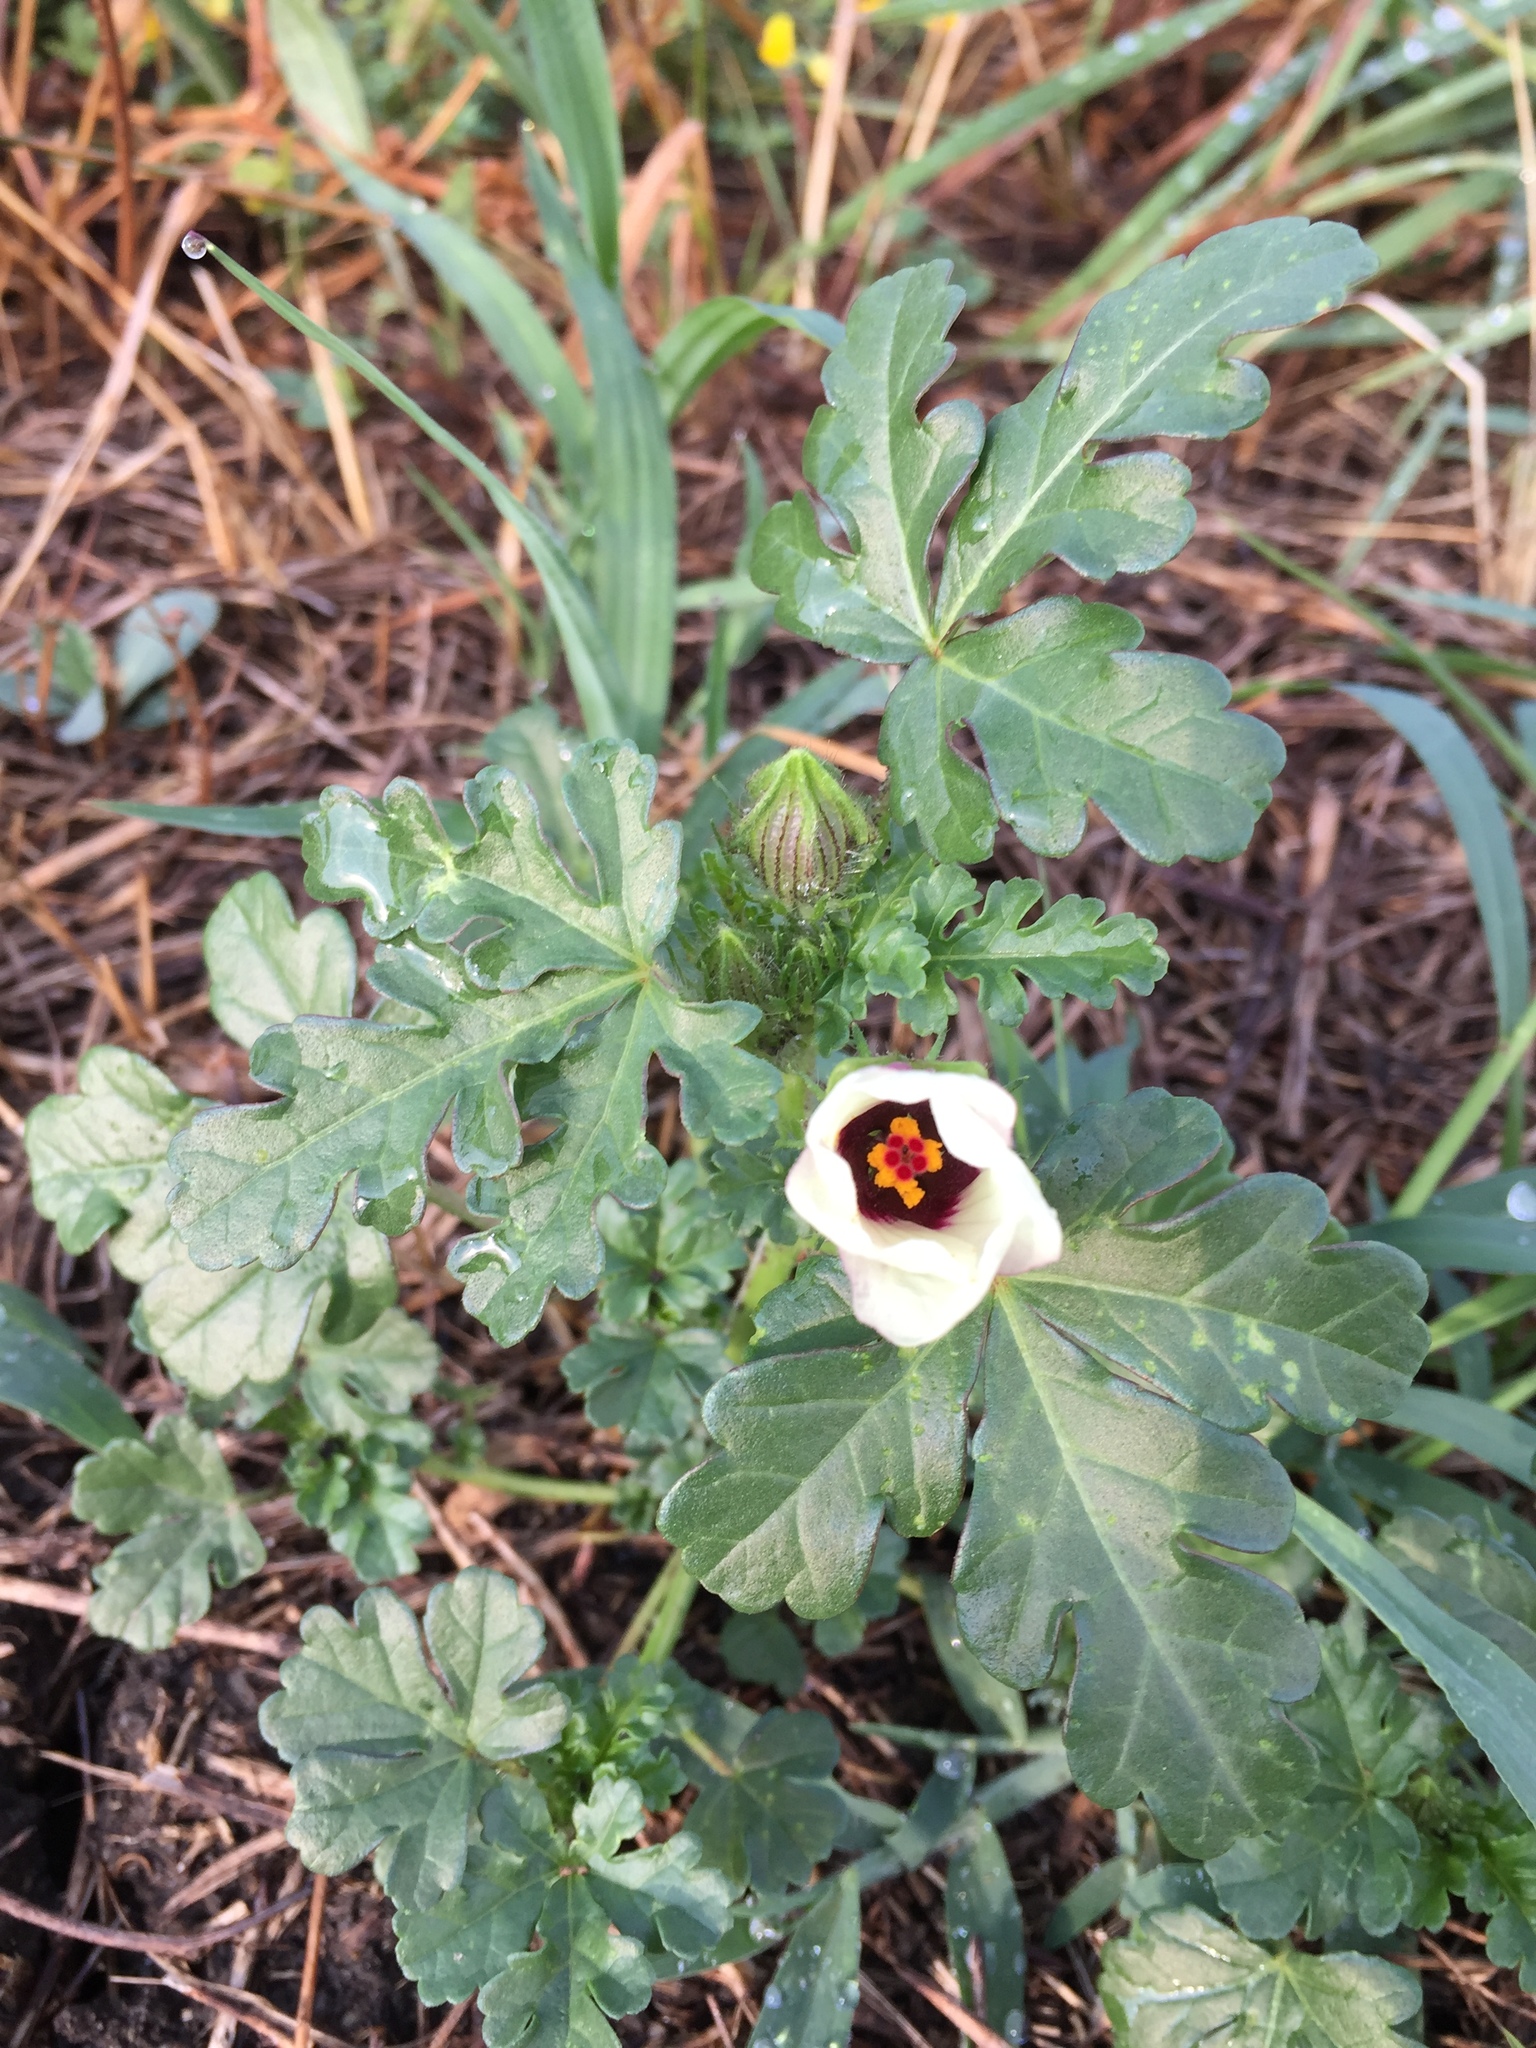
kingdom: Plantae
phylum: Tracheophyta
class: Magnoliopsida
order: Malvales
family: Malvaceae
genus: Hibiscus
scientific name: Hibiscus trionum
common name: Bladder ketmia
